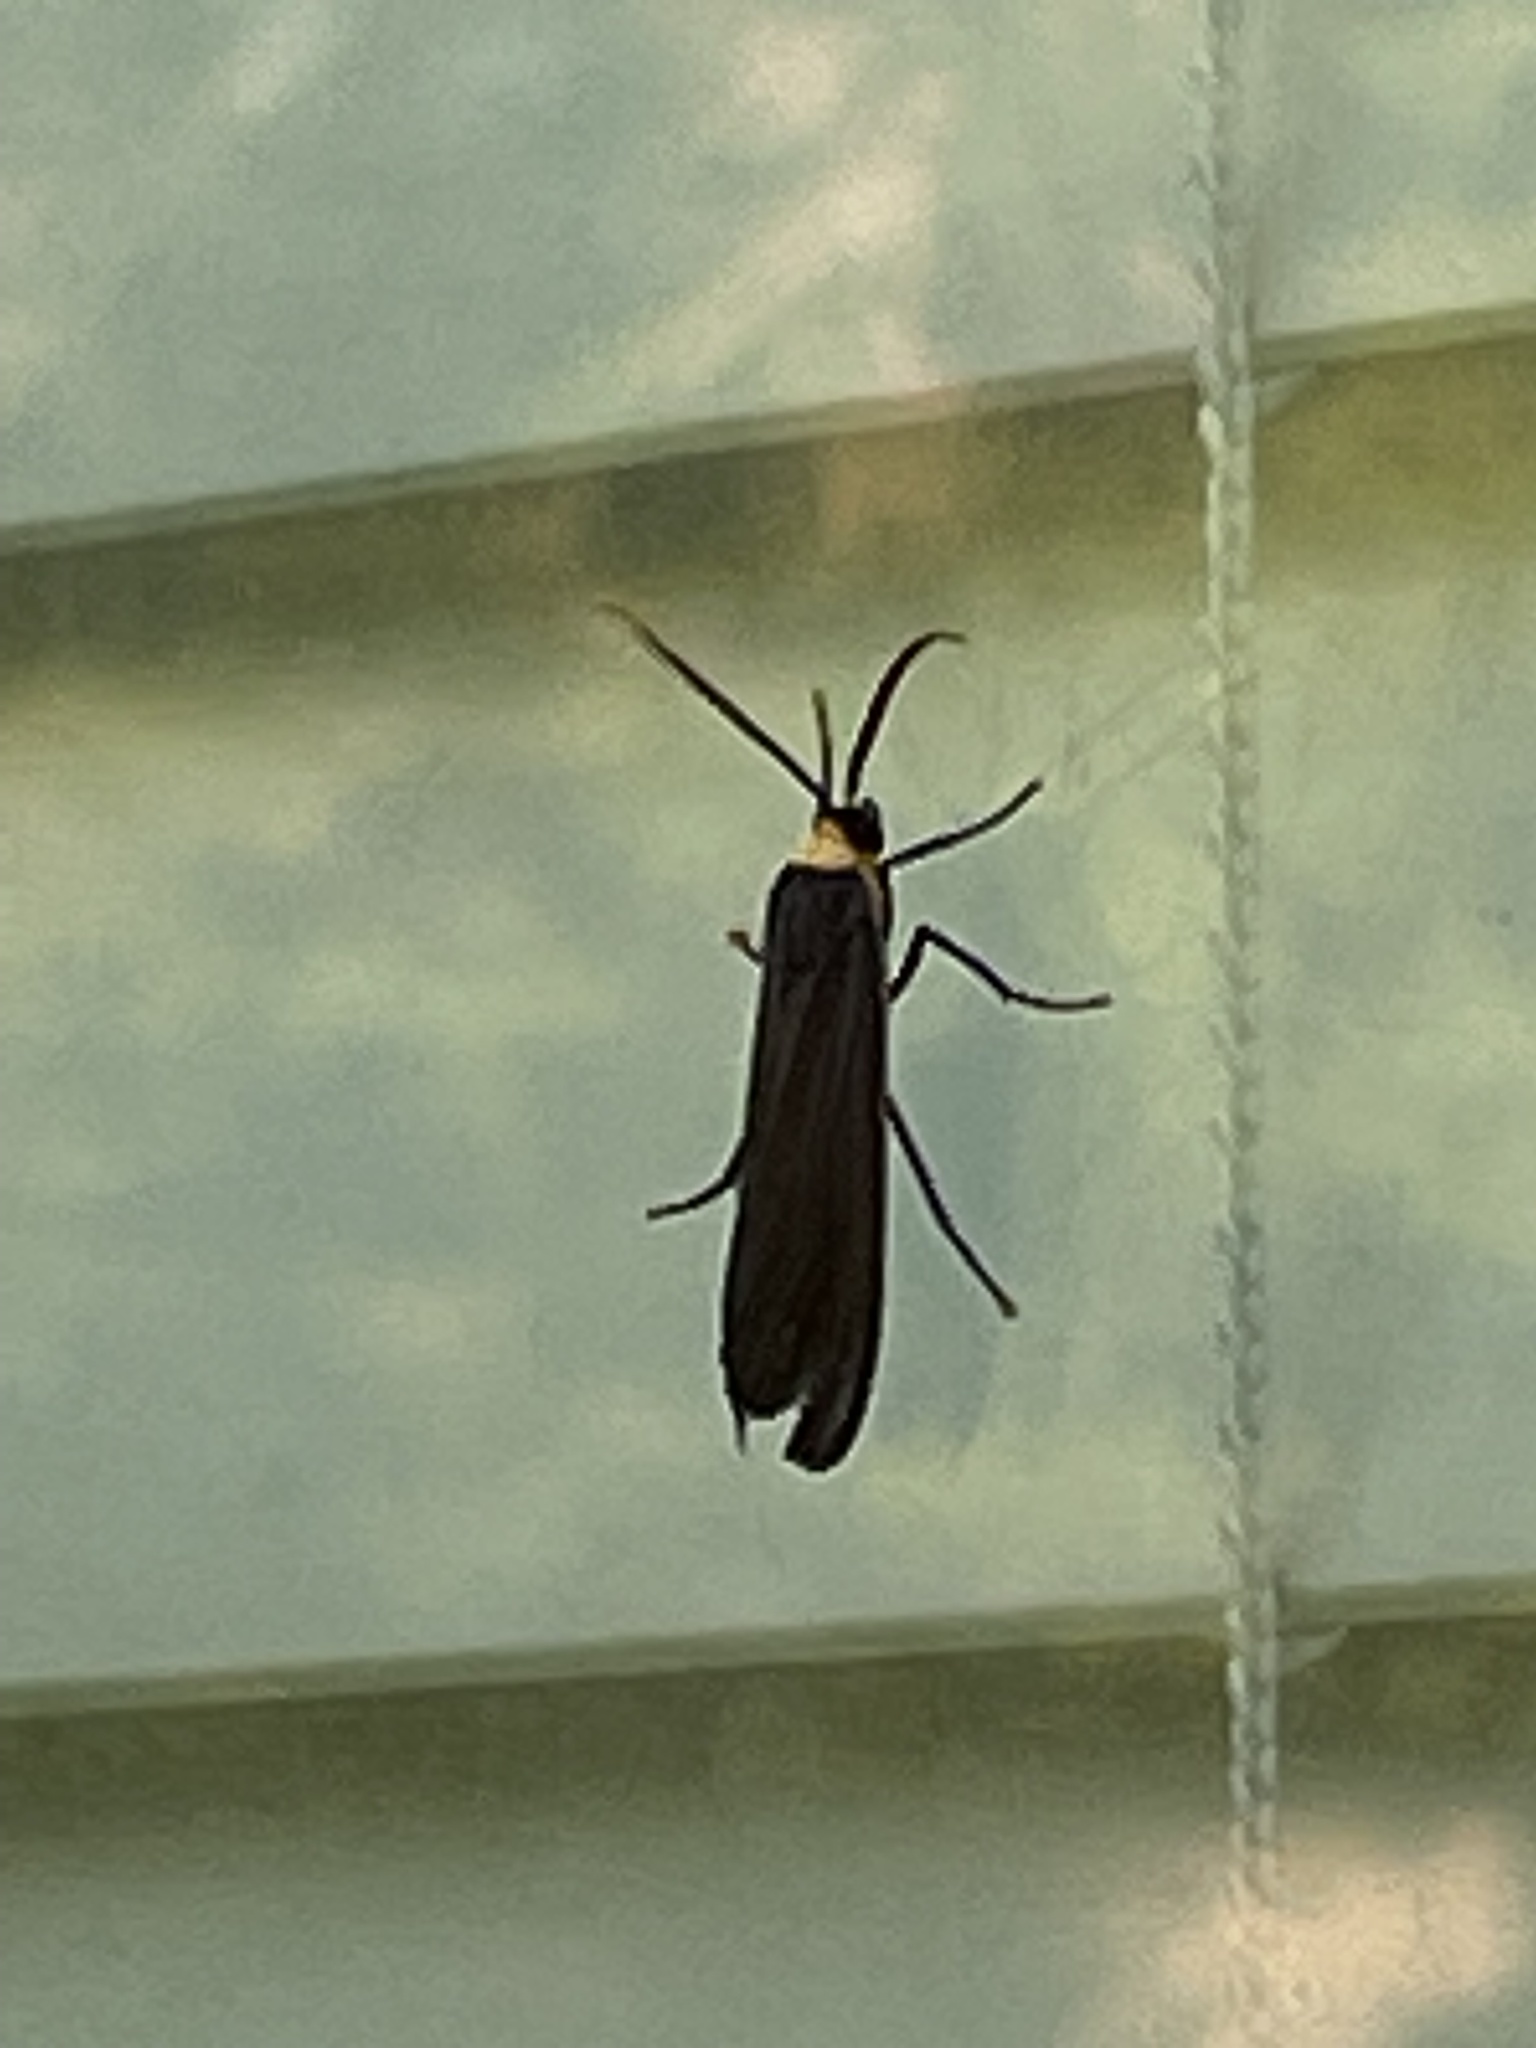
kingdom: Animalia
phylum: Arthropoda
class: Insecta
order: Lepidoptera
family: Erebidae
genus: Cisseps
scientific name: Cisseps fulvicollis
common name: Yellow-collared scape moth
